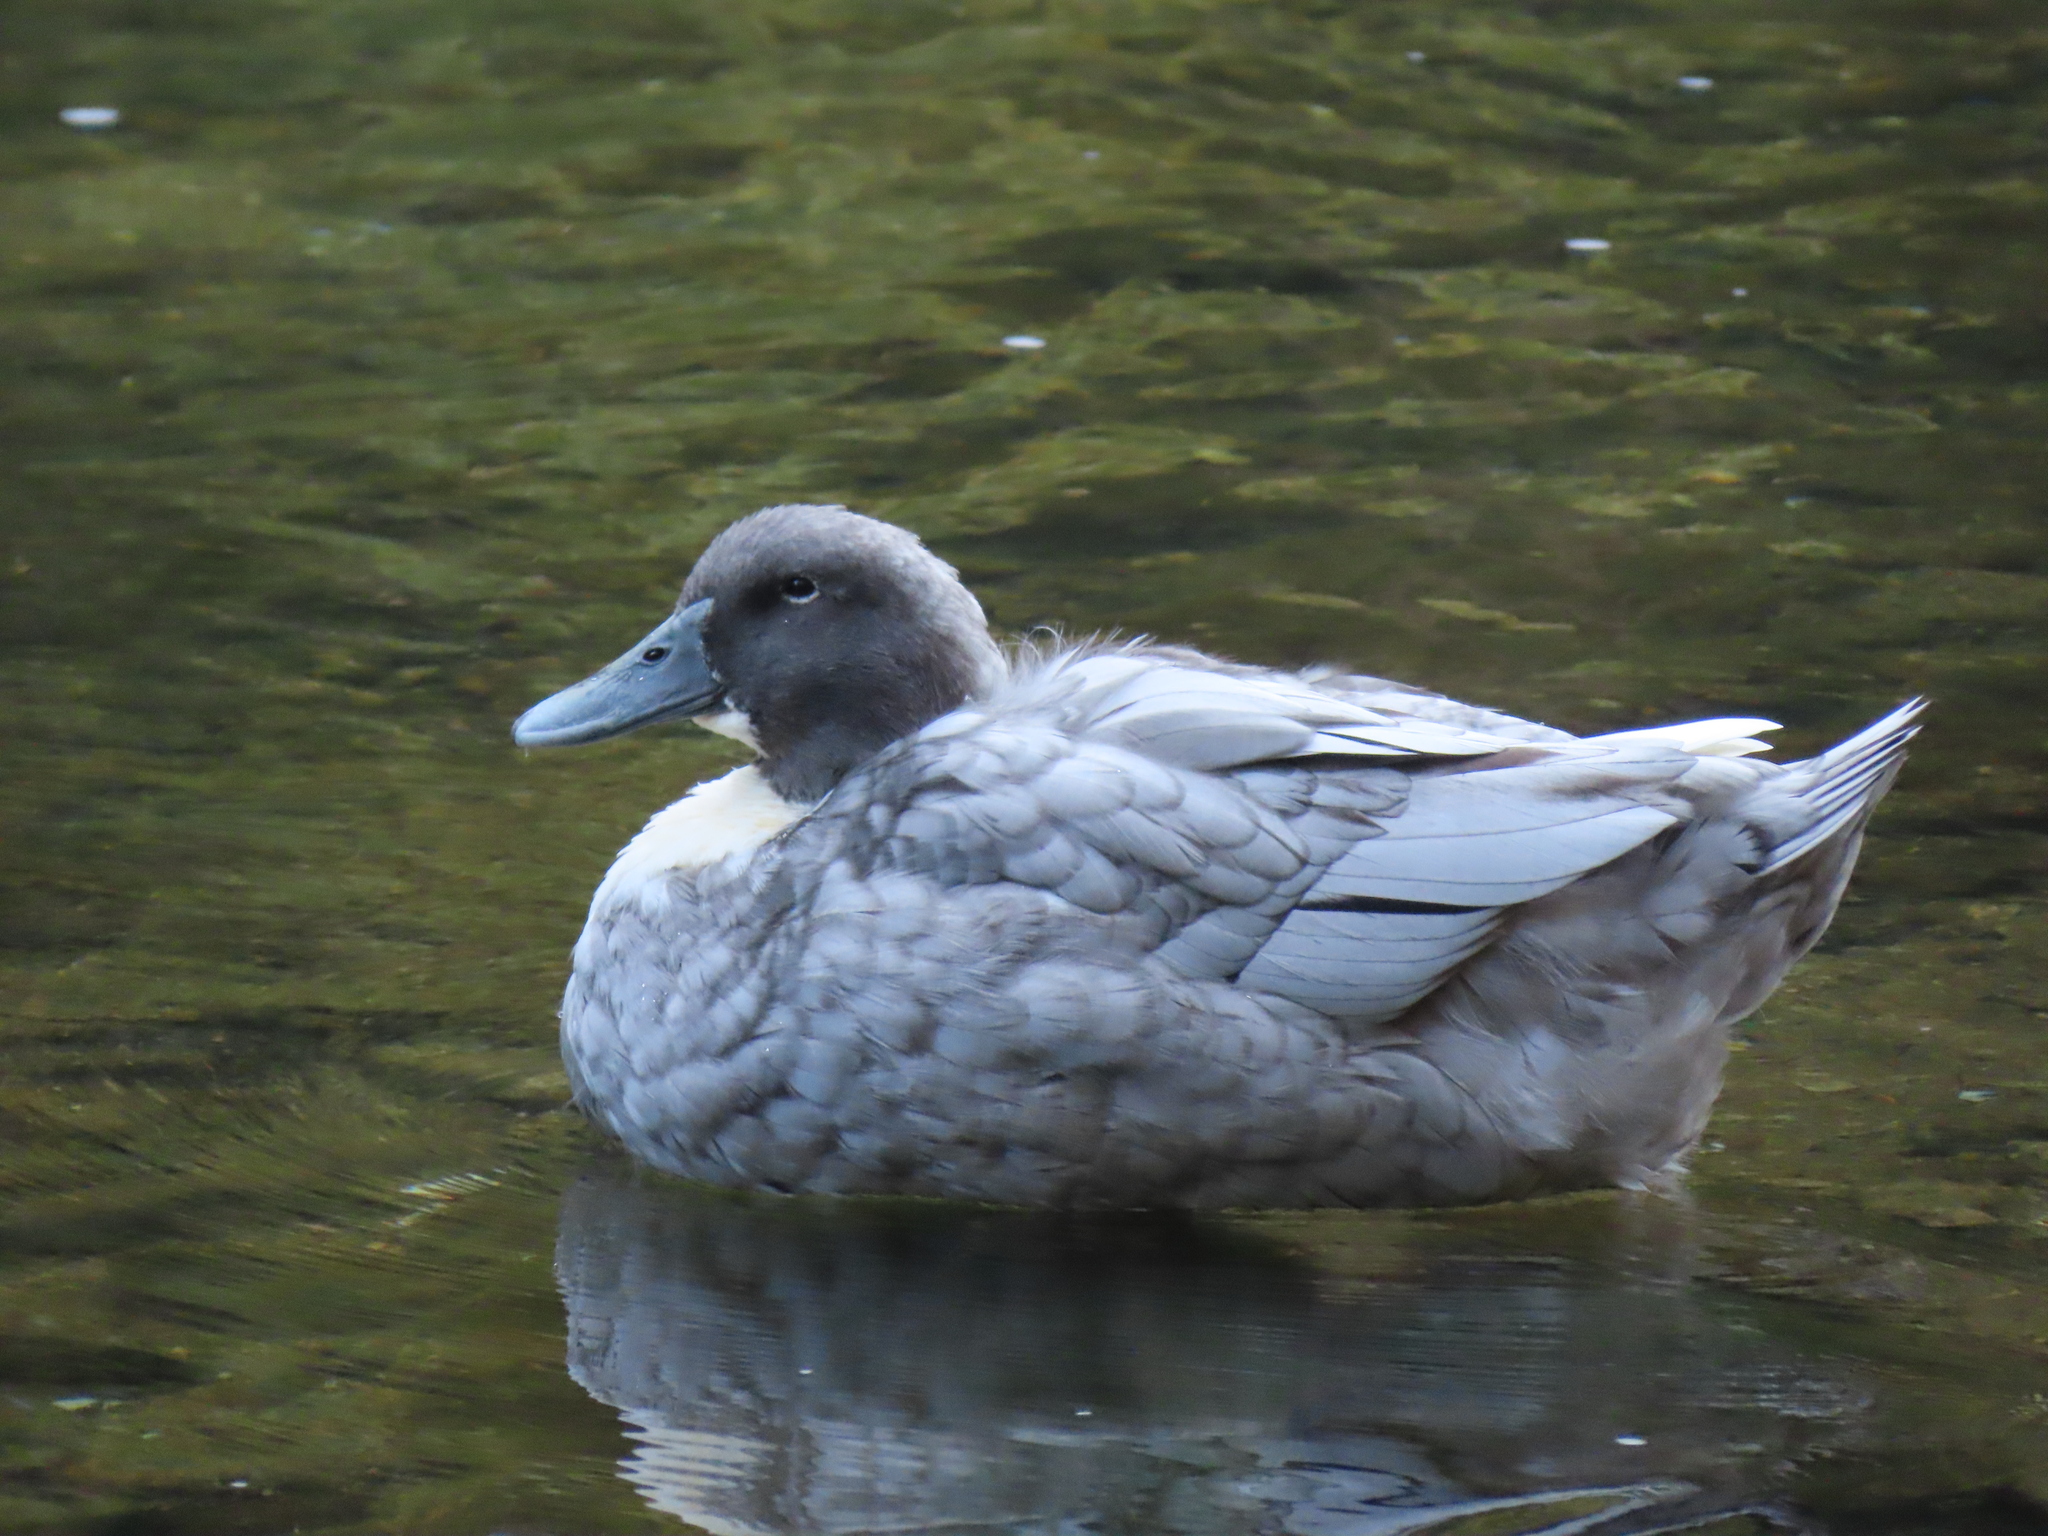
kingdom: Animalia
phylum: Chordata
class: Aves
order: Anseriformes
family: Anatidae
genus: Anas
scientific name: Anas platyrhynchos
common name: Mallard
